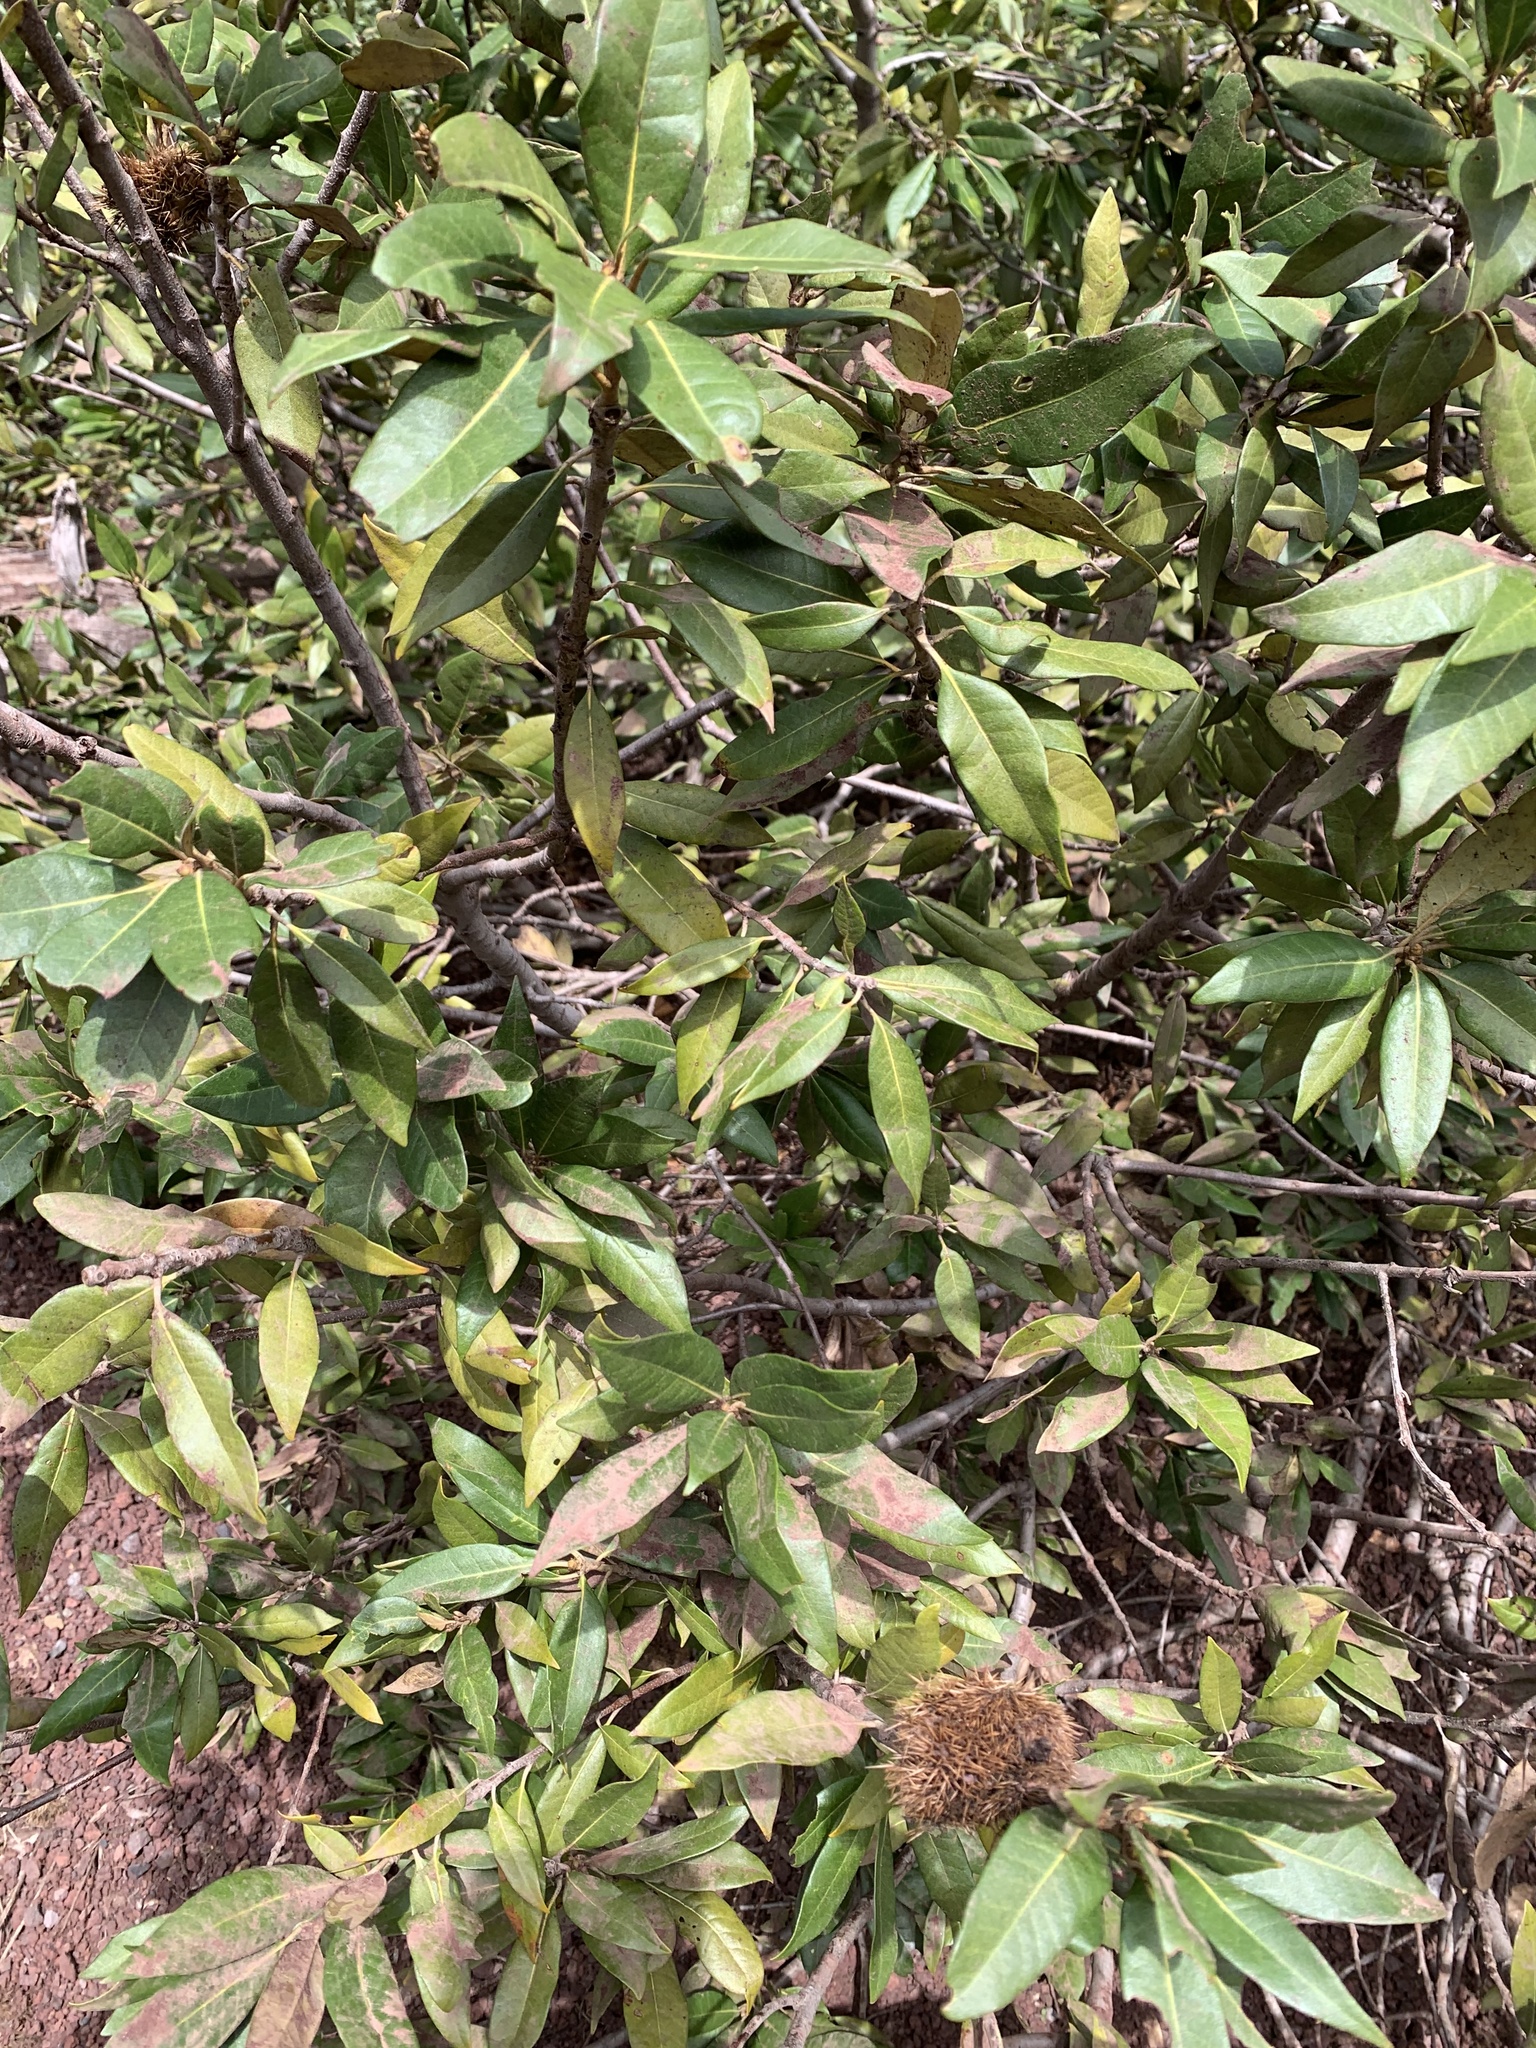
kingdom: Plantae
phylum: Tracheophyta
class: Magnoliopsida
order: Fagales
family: Fagaceae
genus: Chrysolepis
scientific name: Chrysolepis chrysophylla
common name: Giant chinquapin
